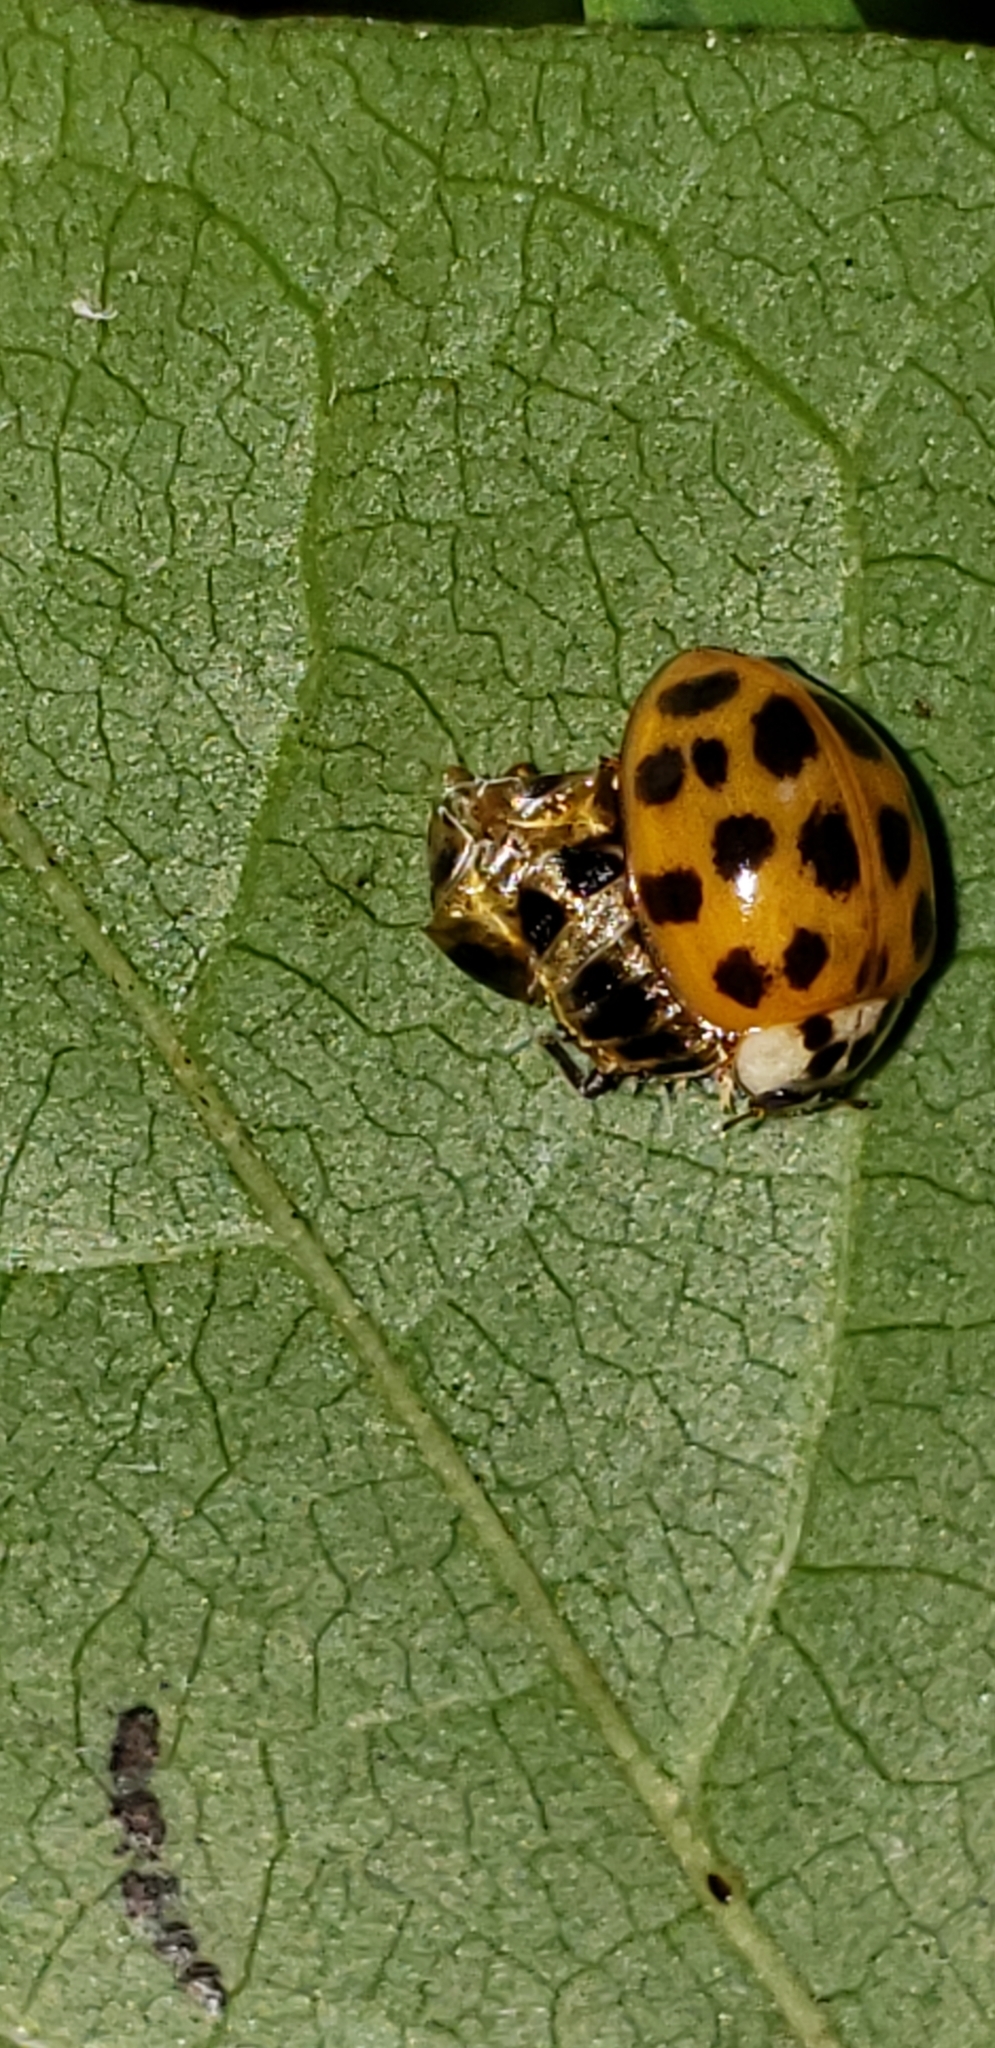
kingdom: Animalia
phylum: Arthropoda
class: Insecta
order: Coleoptera
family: Coccinellidae
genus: Harmonia
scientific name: Harmonia axyridis
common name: Harlequin ladybird
